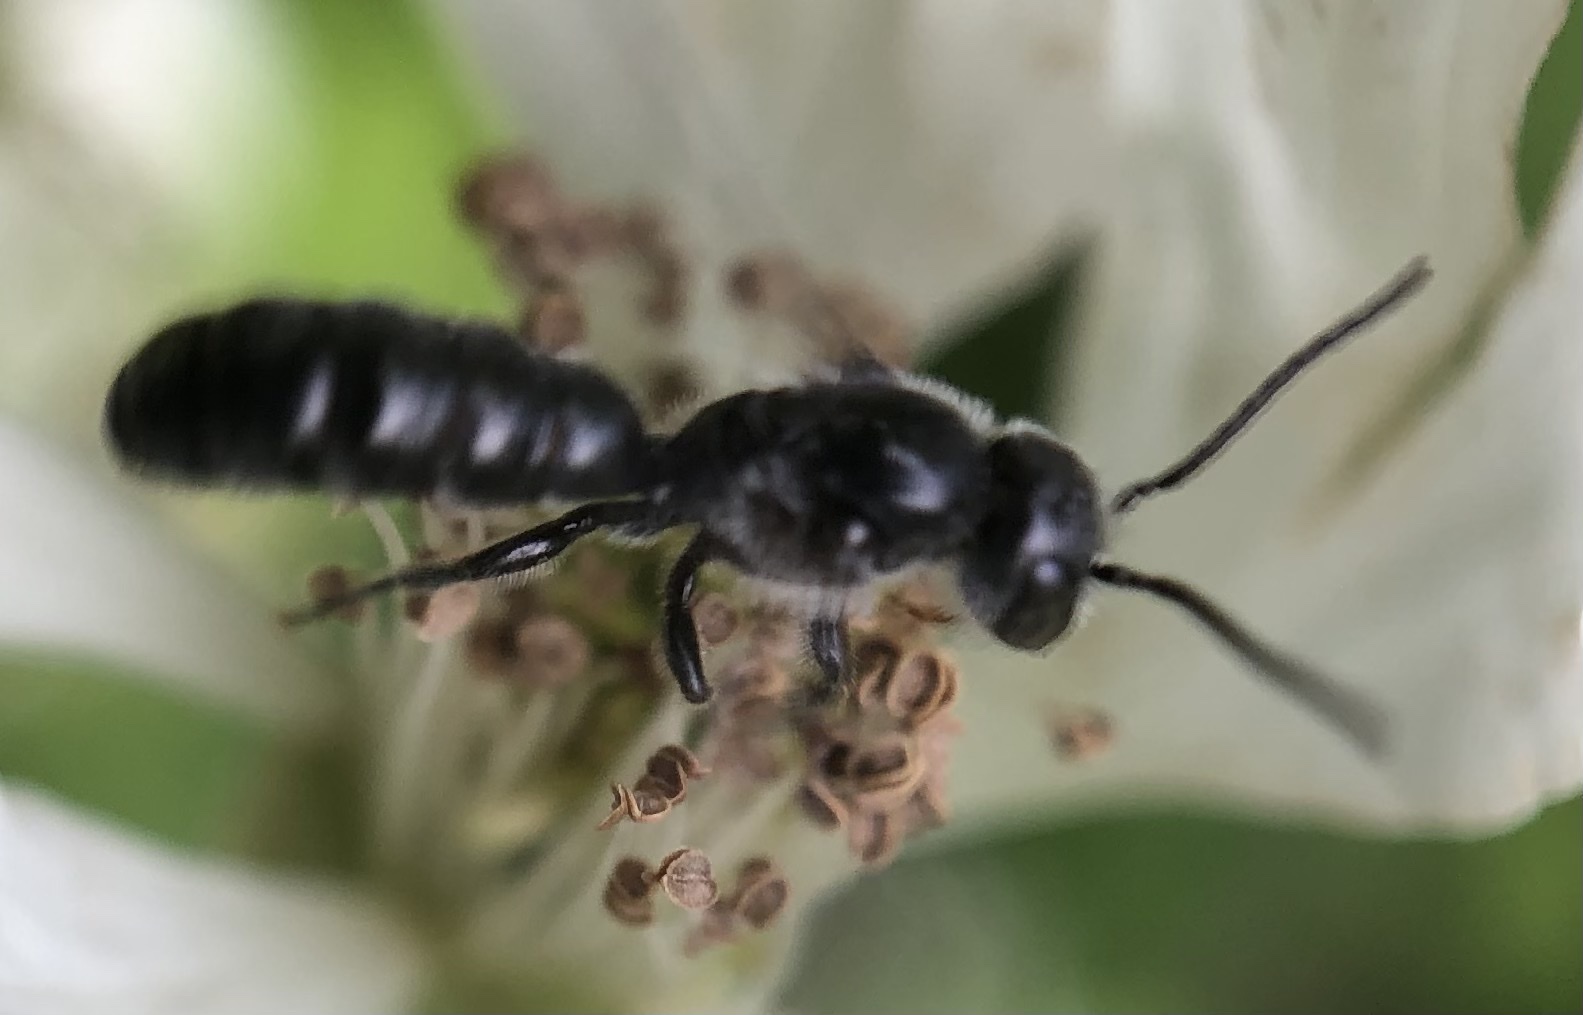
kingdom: Animalia
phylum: Arthropoda
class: Insecta
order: Hymenoptera
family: Megachilidae
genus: Chelostoma
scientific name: Chelostoma philadelphi
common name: Mock-orange scissor bee
